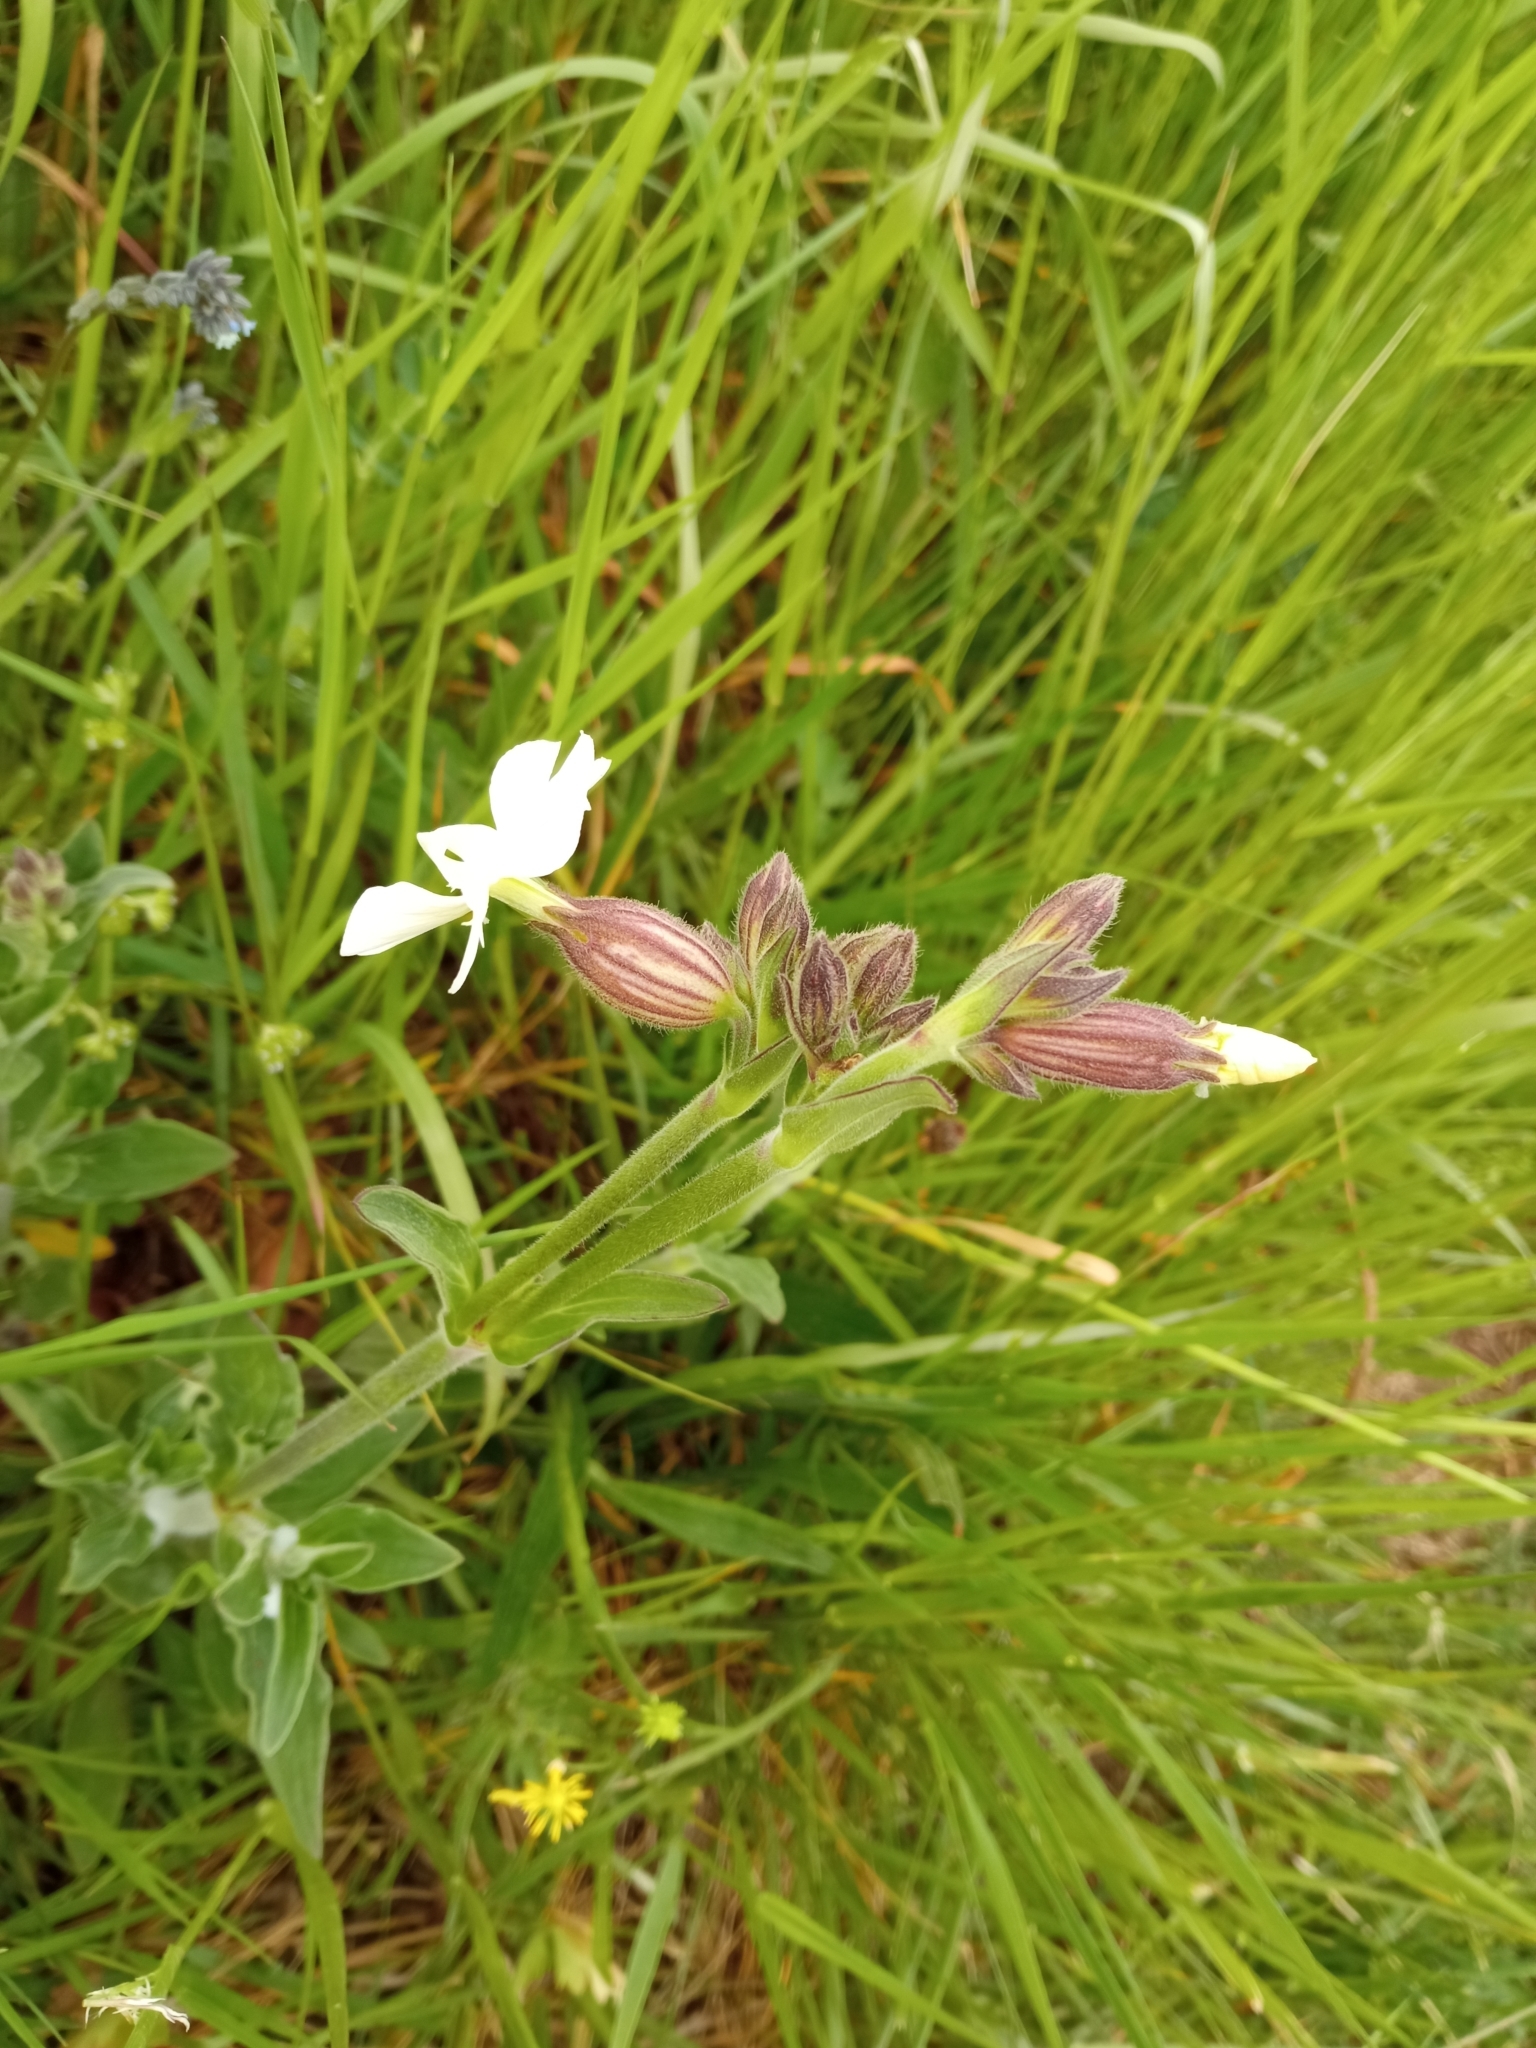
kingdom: Plantae
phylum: Tracheophyta
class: Magnoliopsida
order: Caryophyllales
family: Caryophyllaceae
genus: Silene
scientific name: Silene latifolia
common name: White campion
